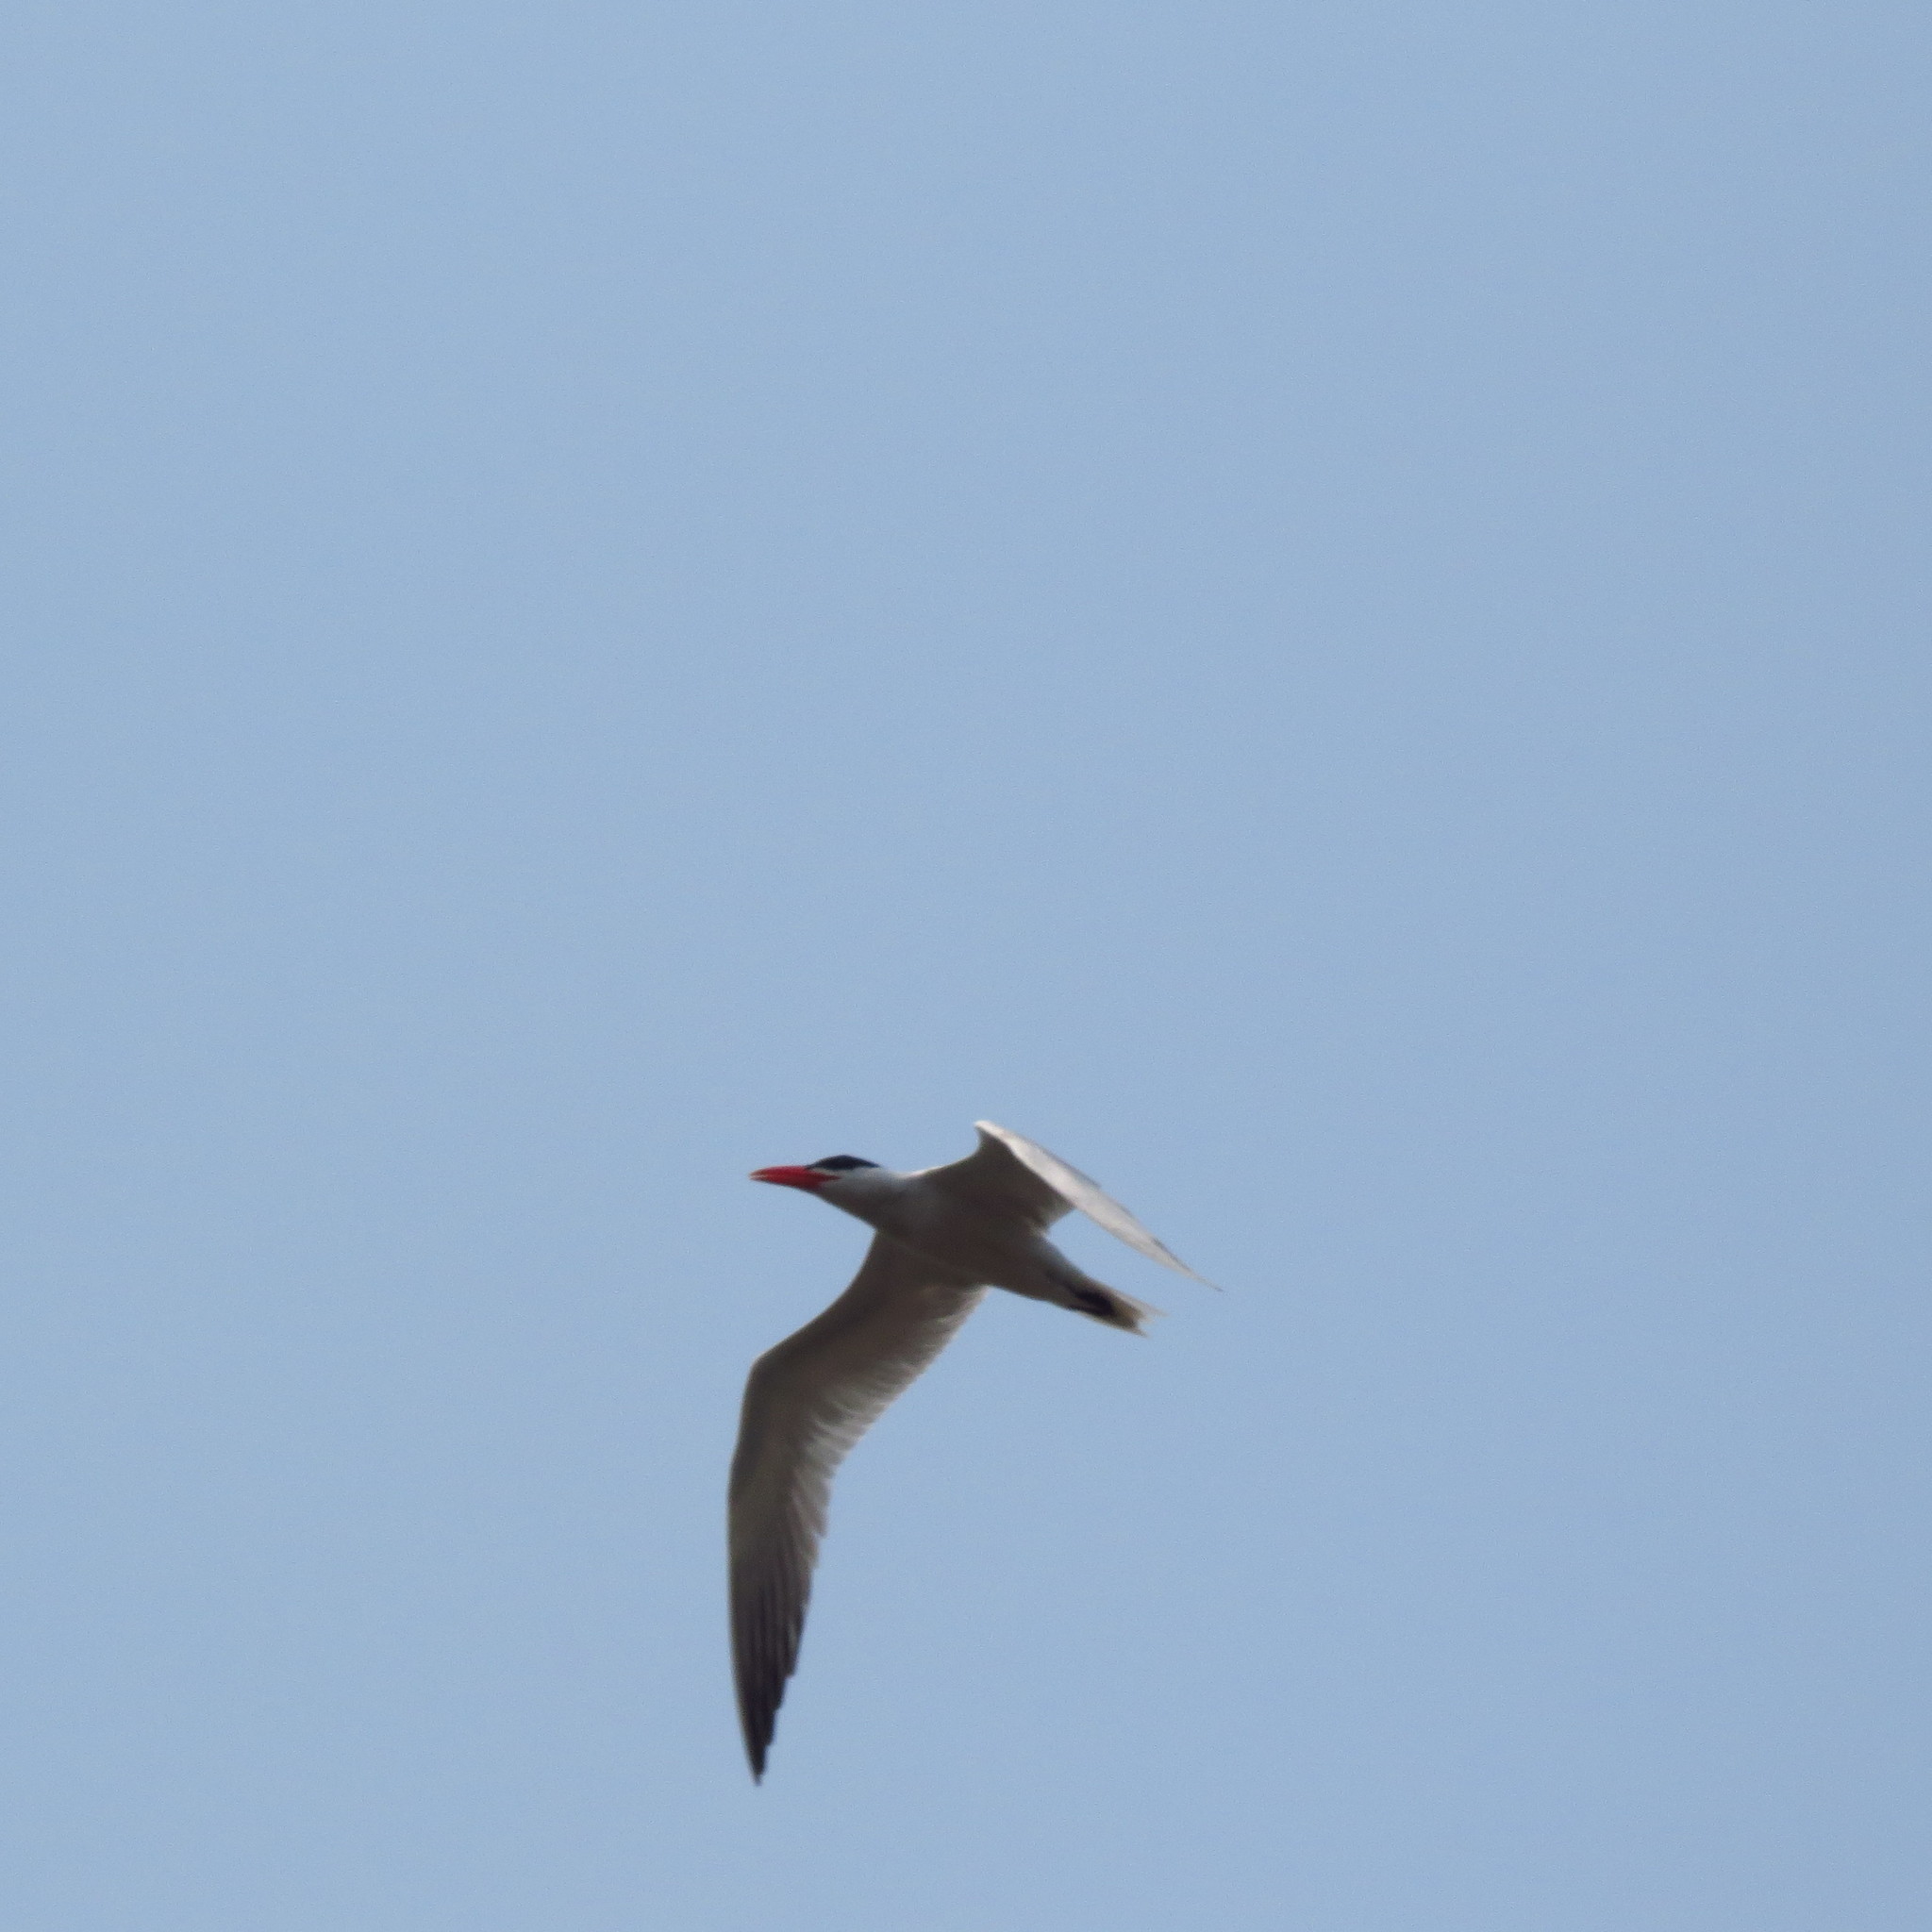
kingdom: Animalia
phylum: Chordata
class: Aves
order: Charadriiformes
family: Laridae
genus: Hydroprogne
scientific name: Hydroprogne caspia
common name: Caspian tern
